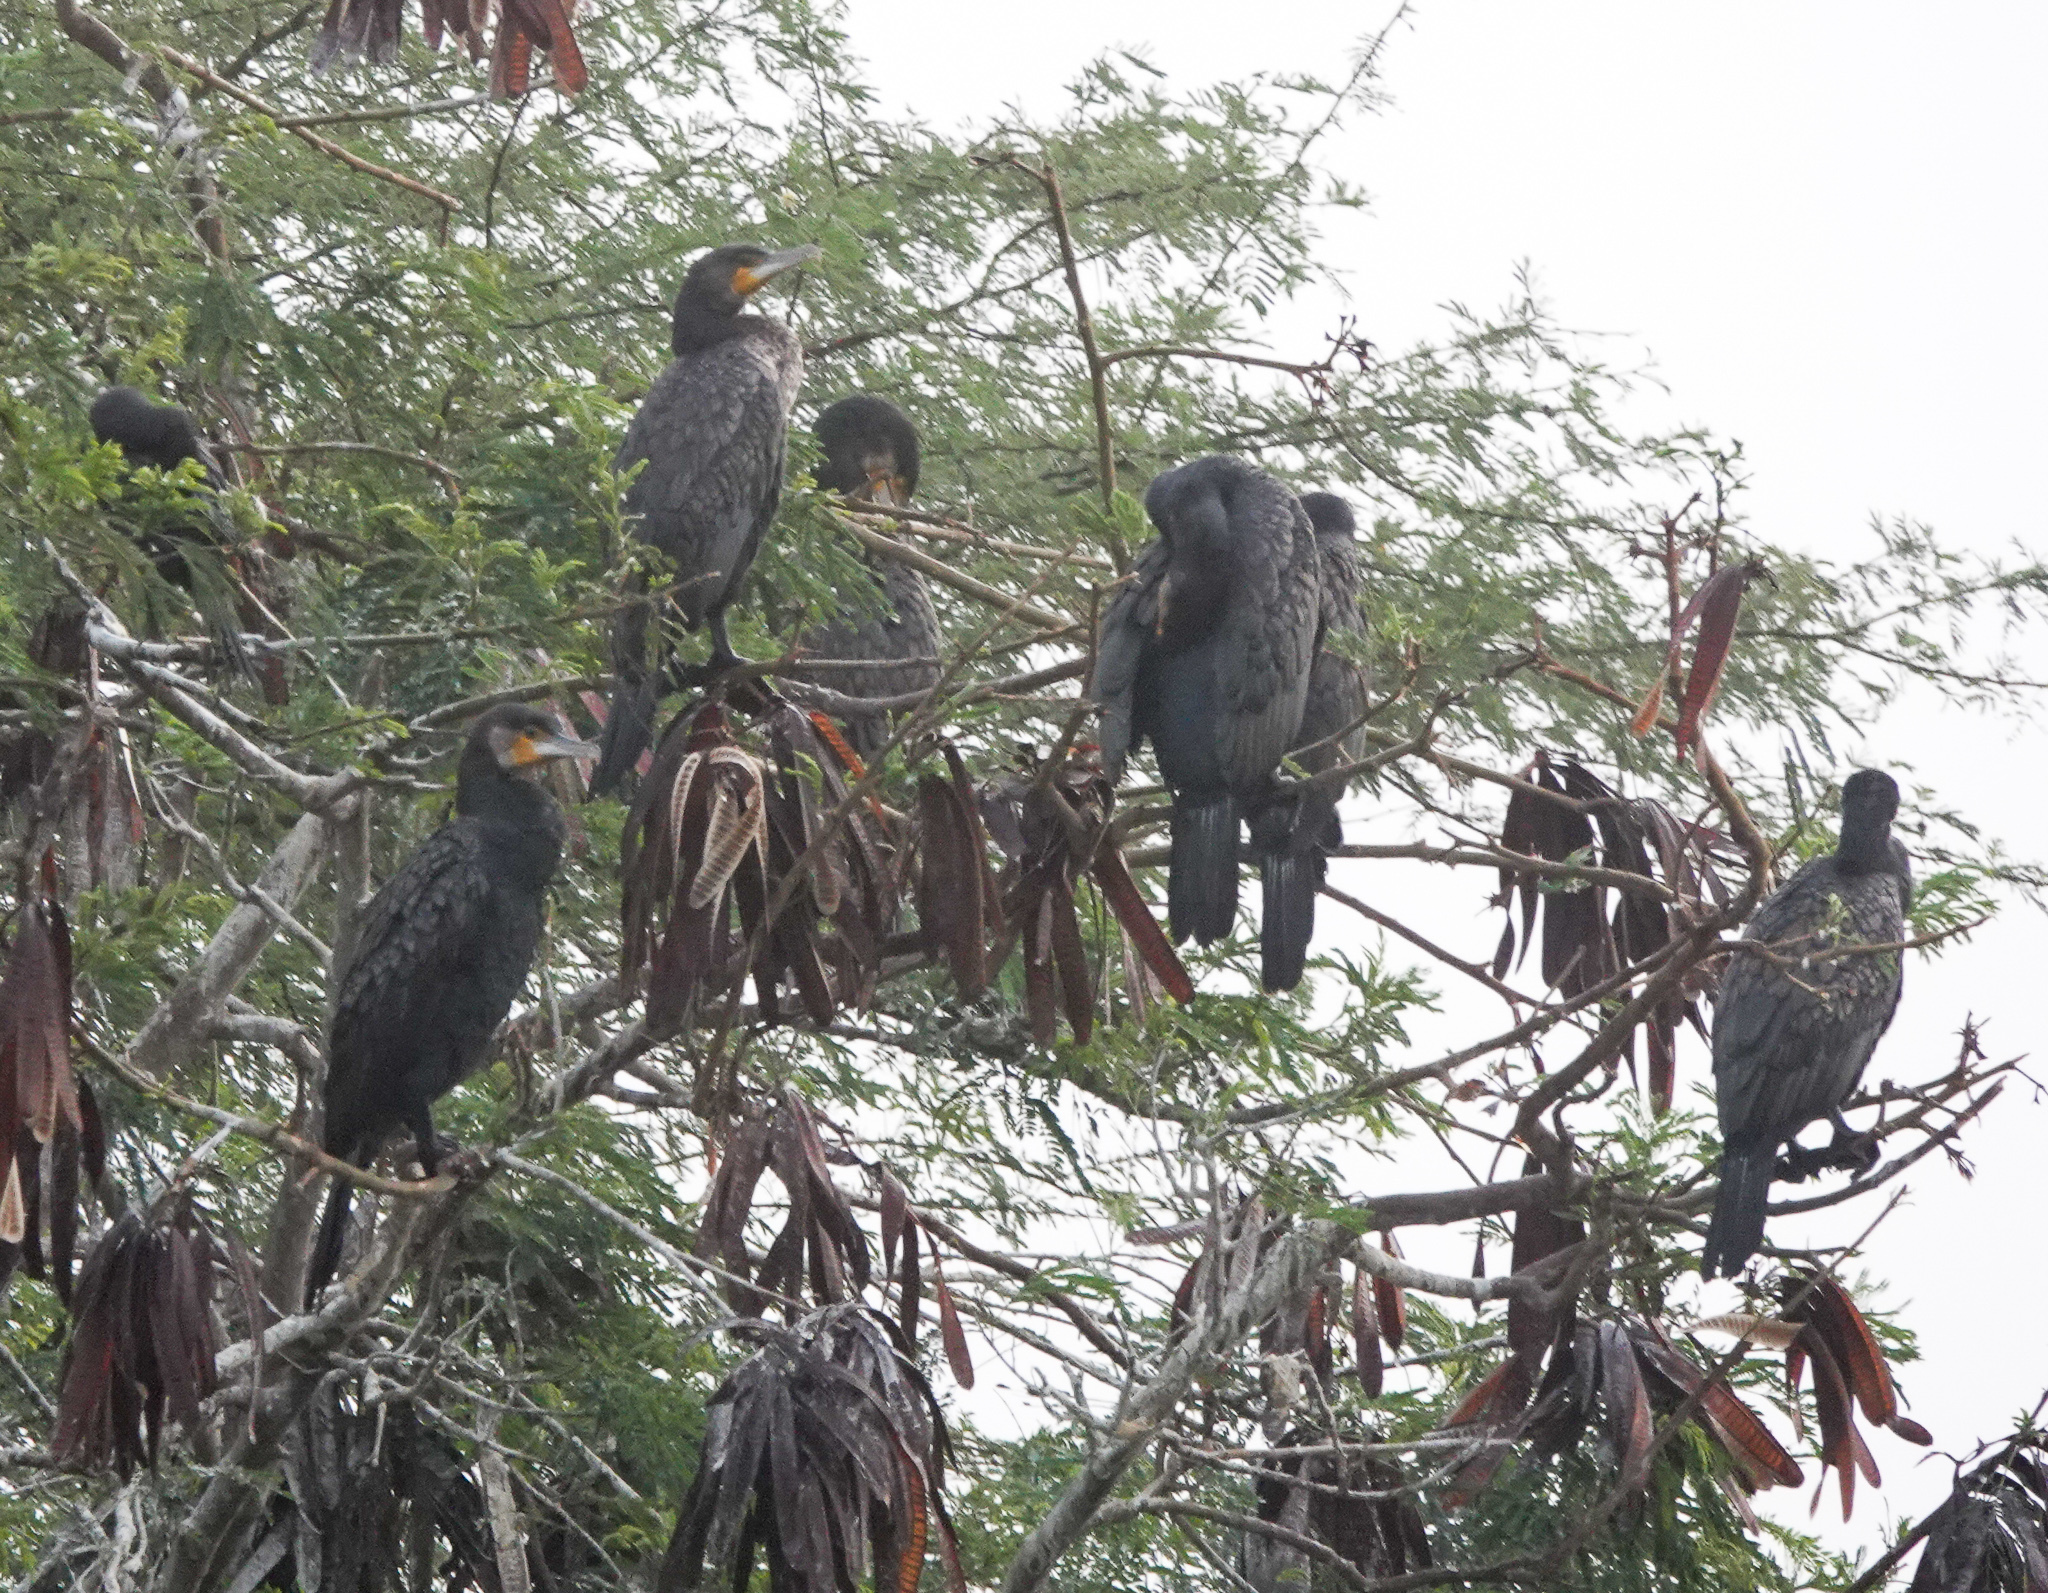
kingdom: Animalia
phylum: Chordata
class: Aves
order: Suliformes
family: Phalacrocoracidae
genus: Phalacrocorax
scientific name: Phalacrocorax carbo
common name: Great cormorant
